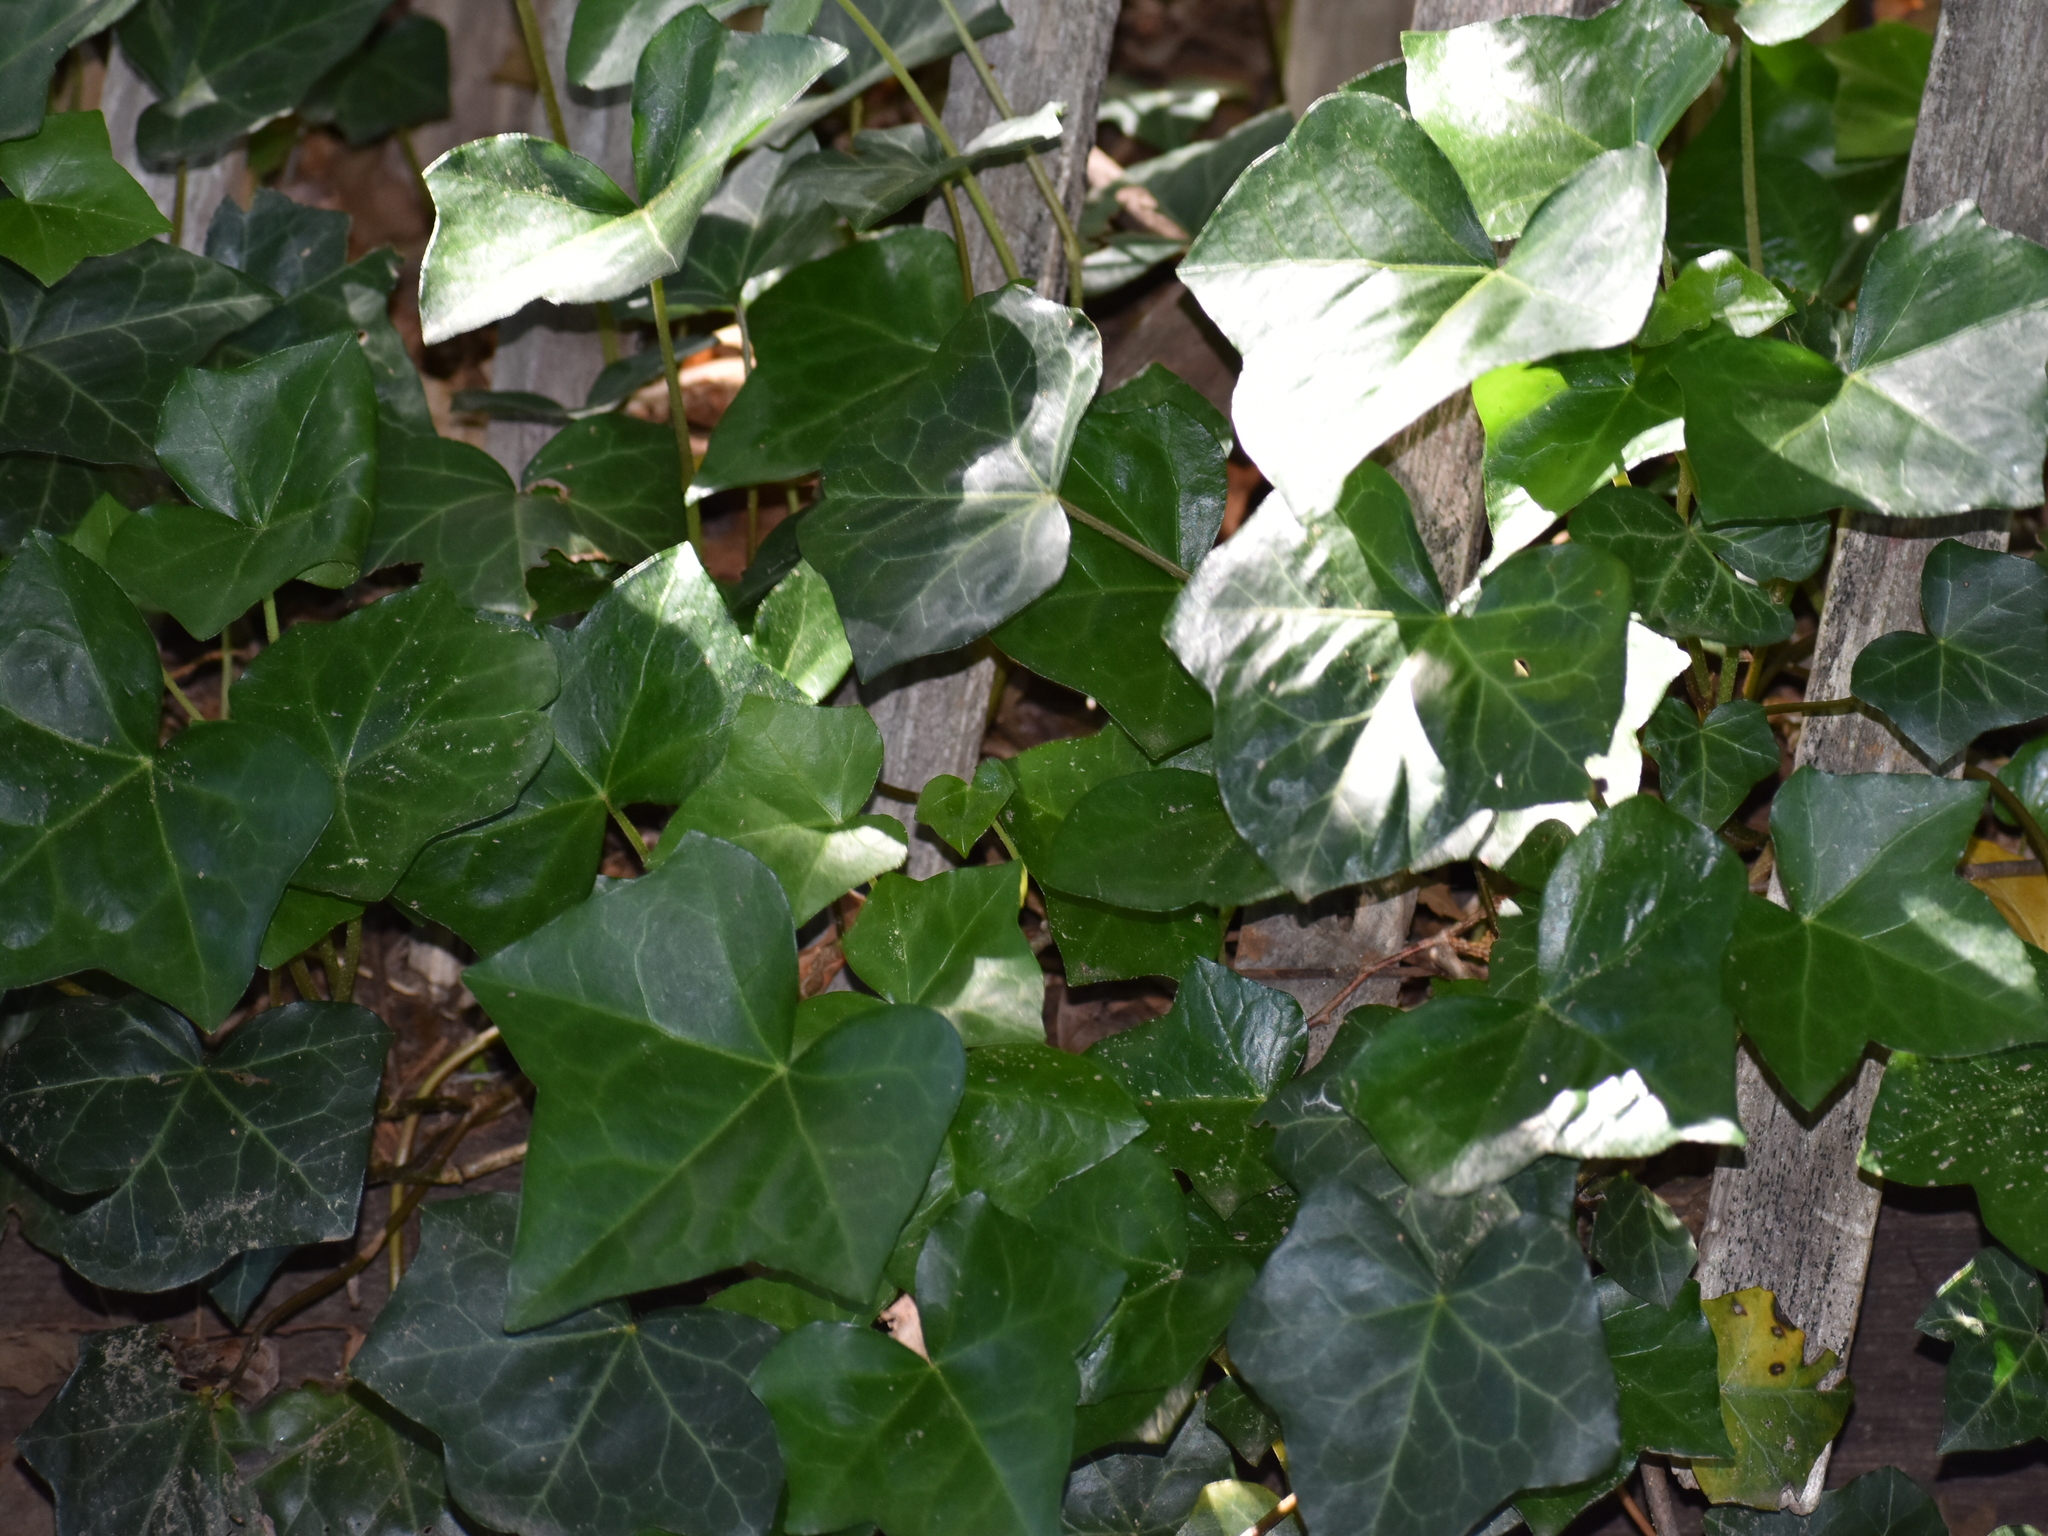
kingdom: Plantae
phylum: Tracheophyta
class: Magnoliopsida
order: Apiales
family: Araliaceae
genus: Hedera
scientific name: Hedera helix
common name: Ivy
